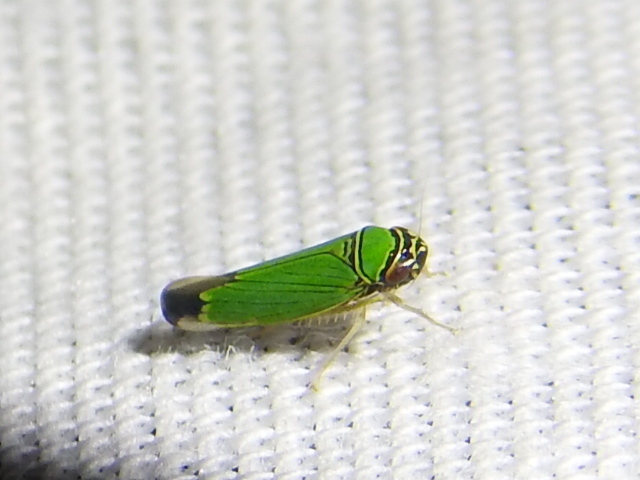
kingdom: Animalia
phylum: Arthropoda
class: Insecta
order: Hemiptera
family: Cicadellidae
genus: Tylozygus
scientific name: Tylozygus geometricus
